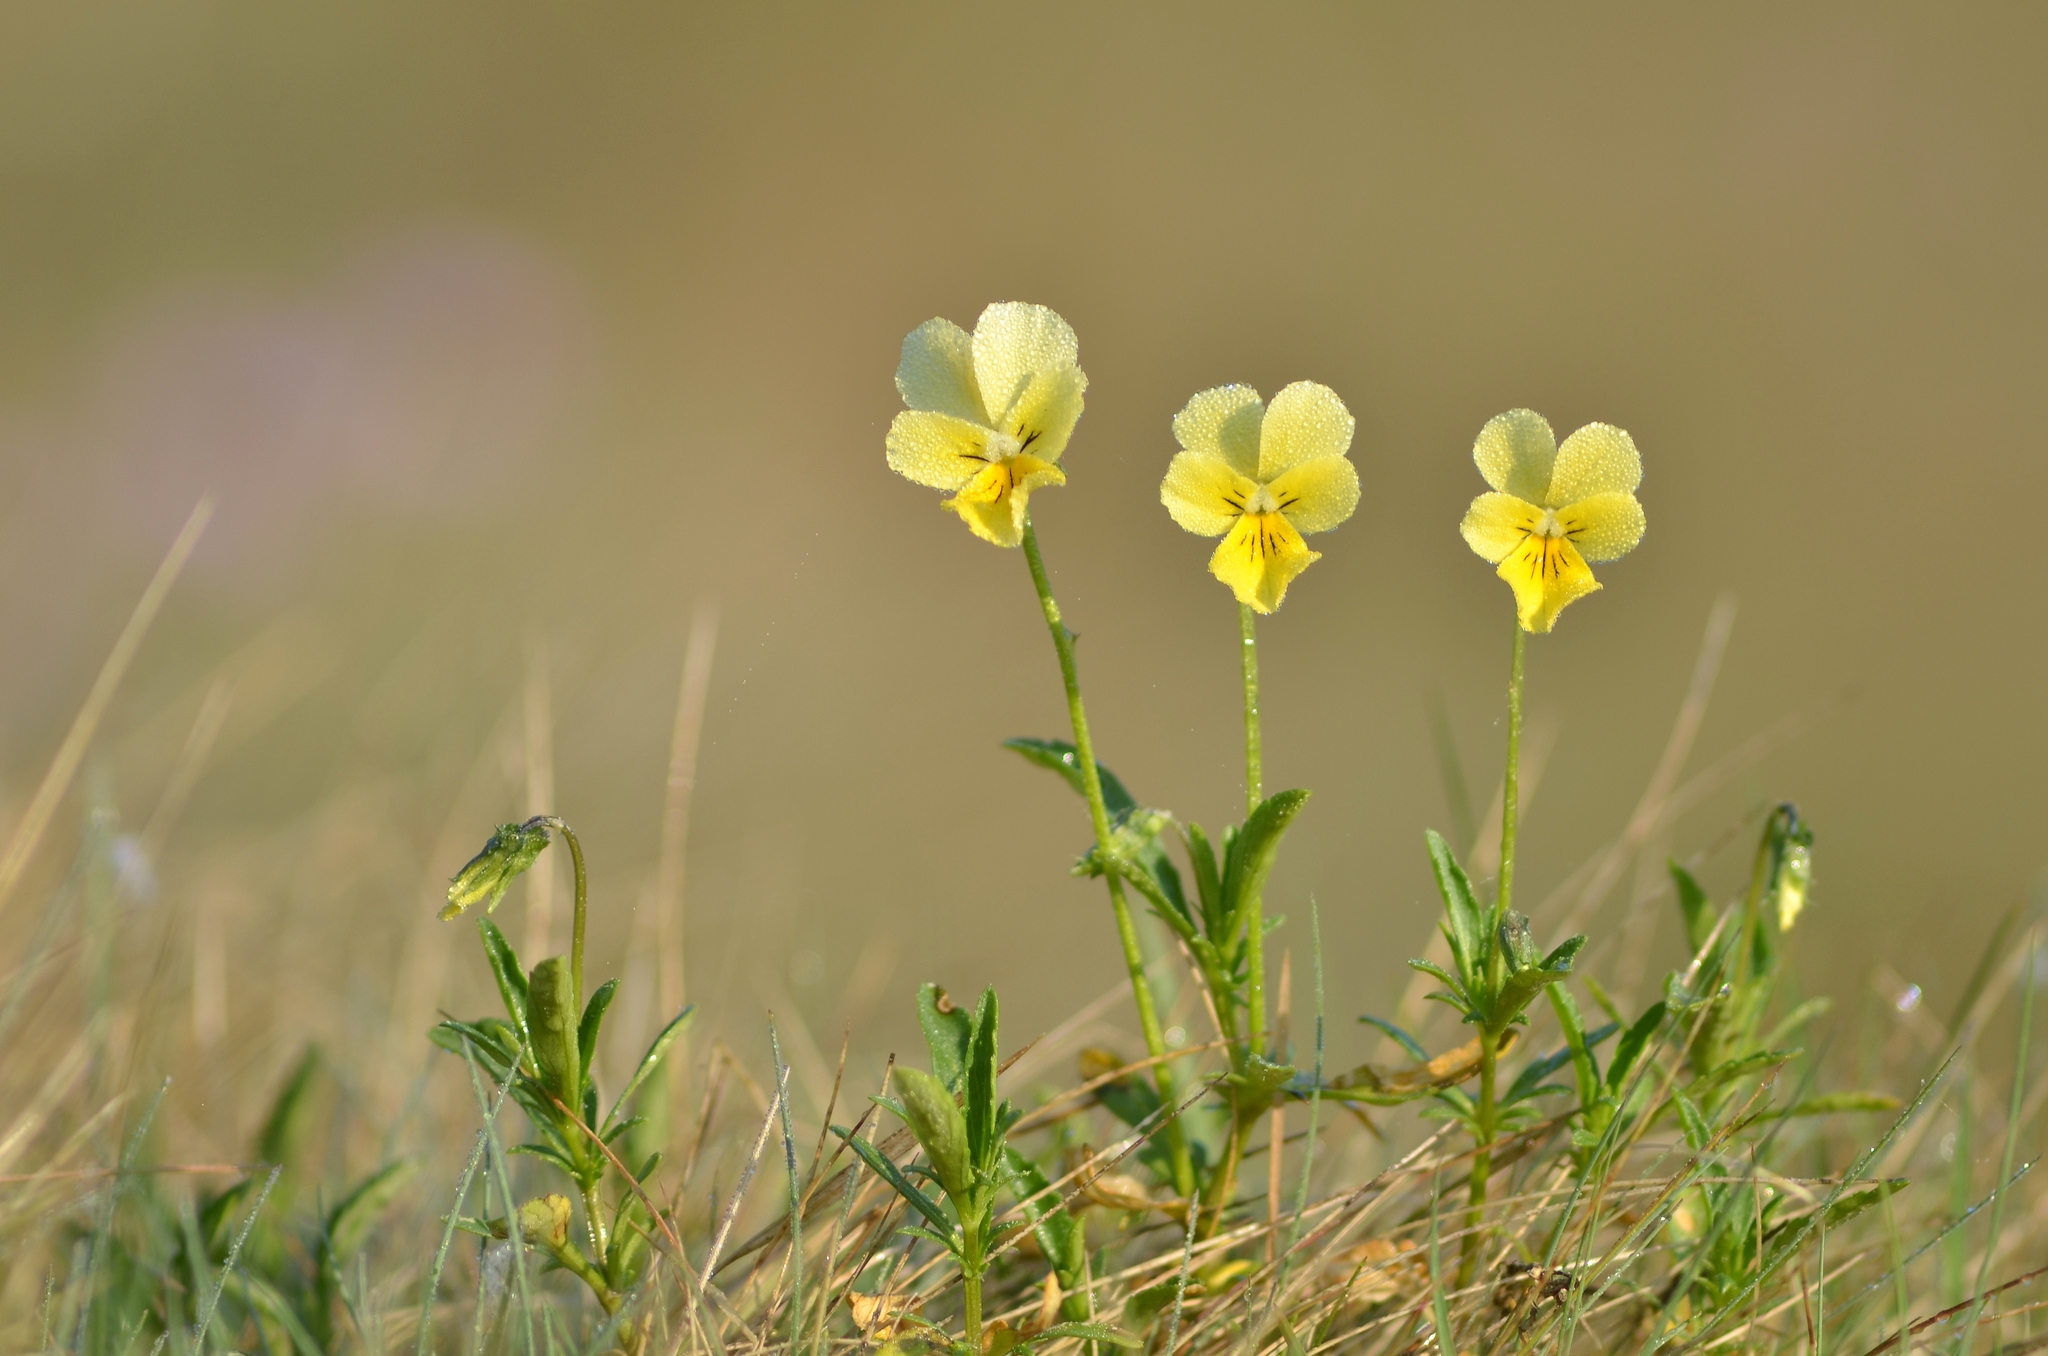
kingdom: Plantae
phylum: Tracheophyta
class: Magnoliopsida
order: Malpighiales
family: Violaceae
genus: Viola
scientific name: Viola lutea
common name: Mountain pansy
